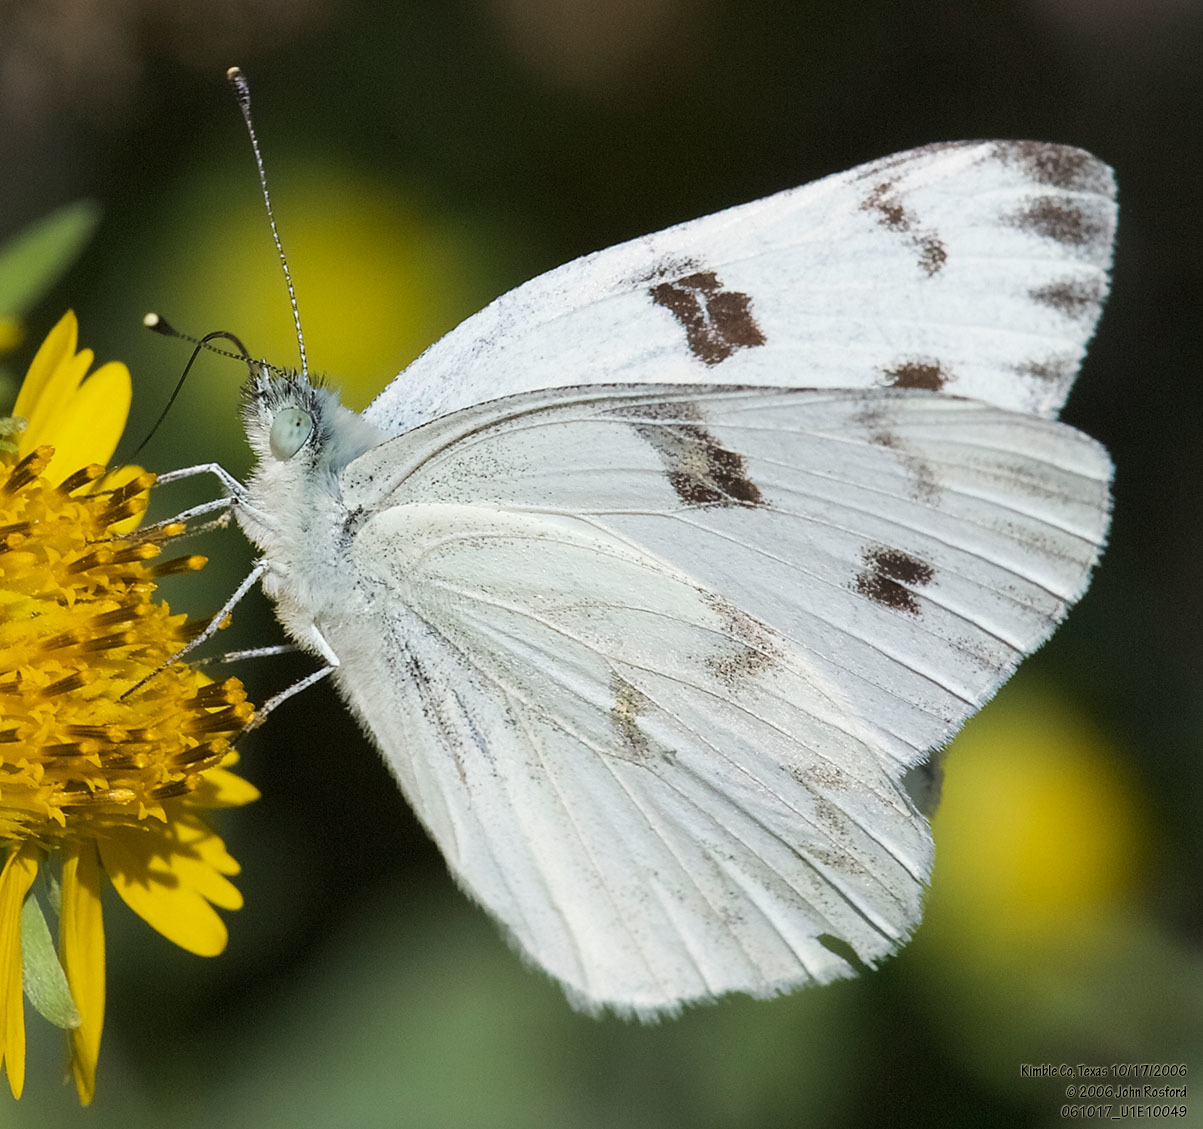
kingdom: Animalia
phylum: Arthropoda
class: Insecta
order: Lepidoptera
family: Pieridae
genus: Pontia
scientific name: Pontia protodice
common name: Checkered white
